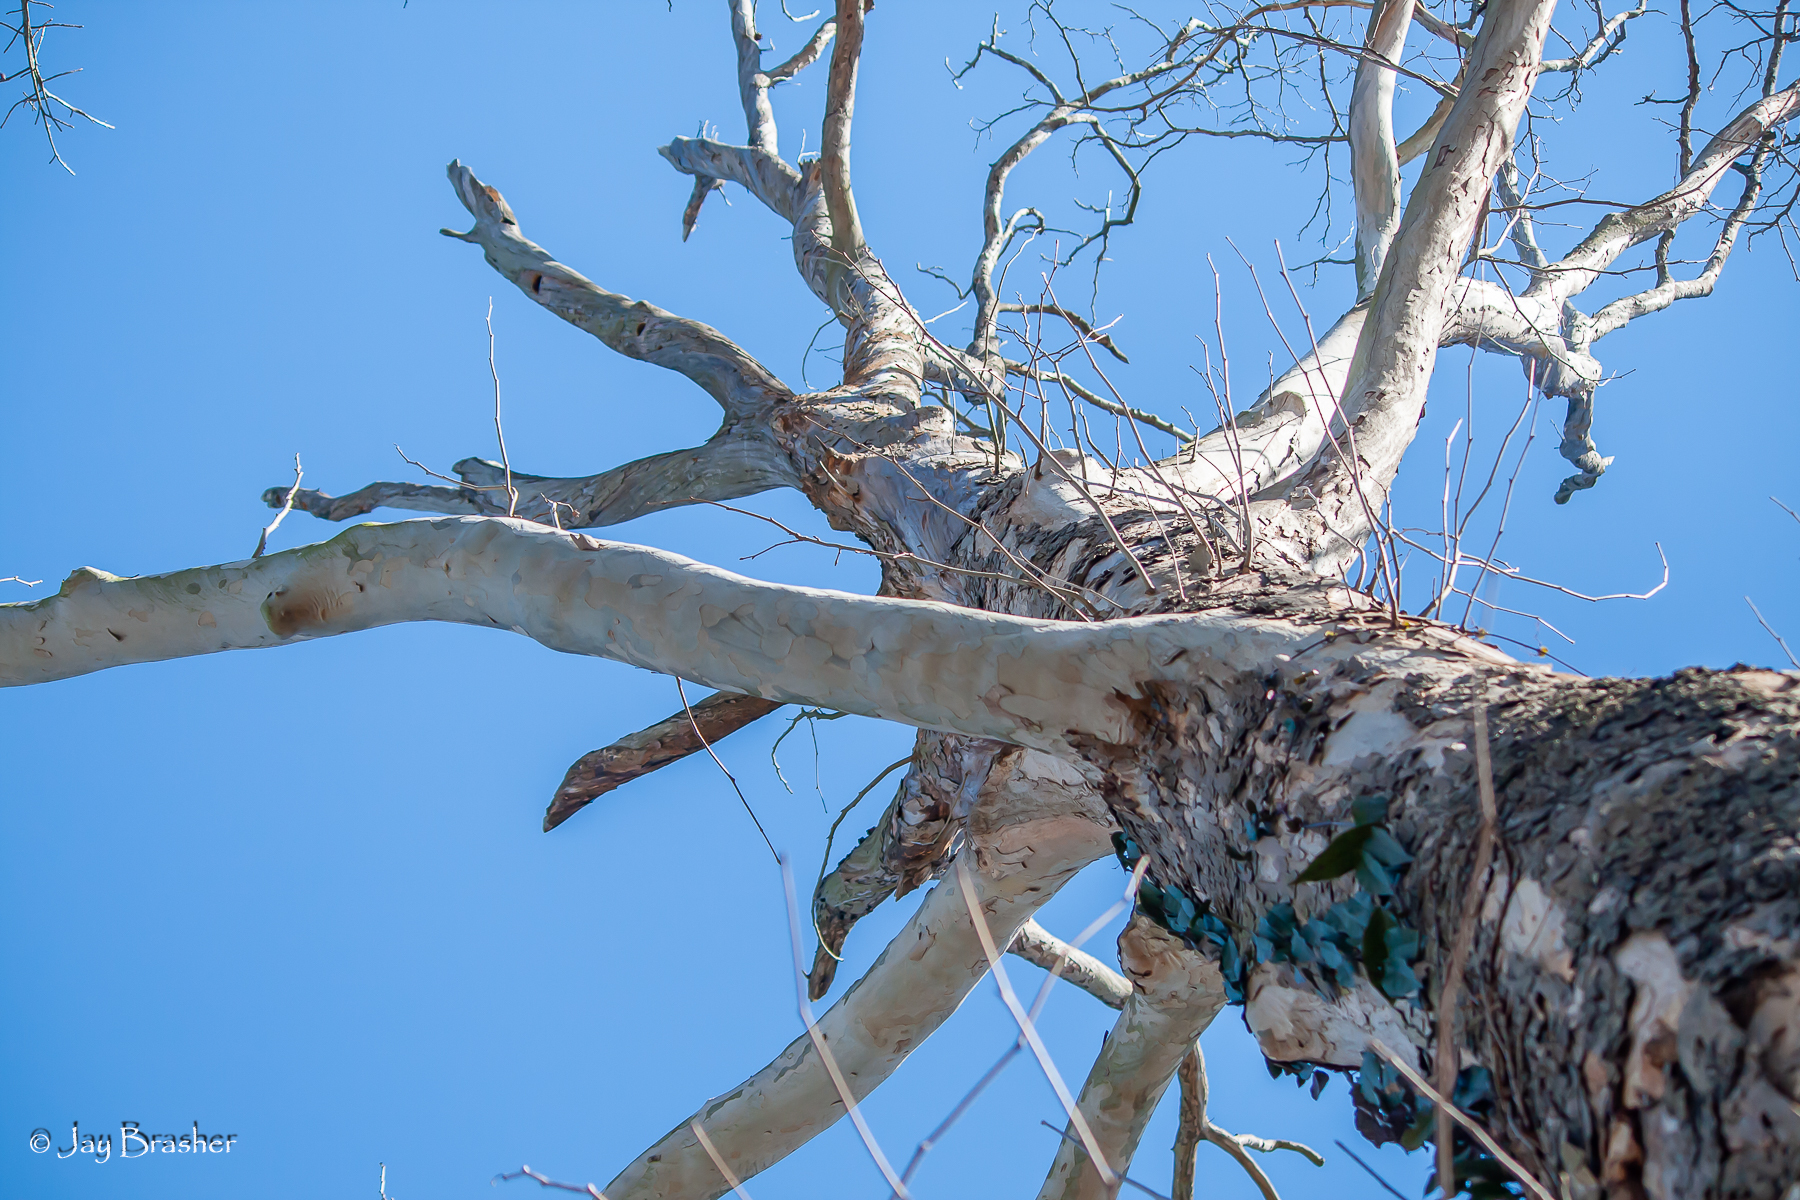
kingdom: Plantae
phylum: Tracheophyta
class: Magnoliopsida
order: Proteales
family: Platanaceae
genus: Platanus
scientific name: Platanus occidentalis
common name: American sycamore
